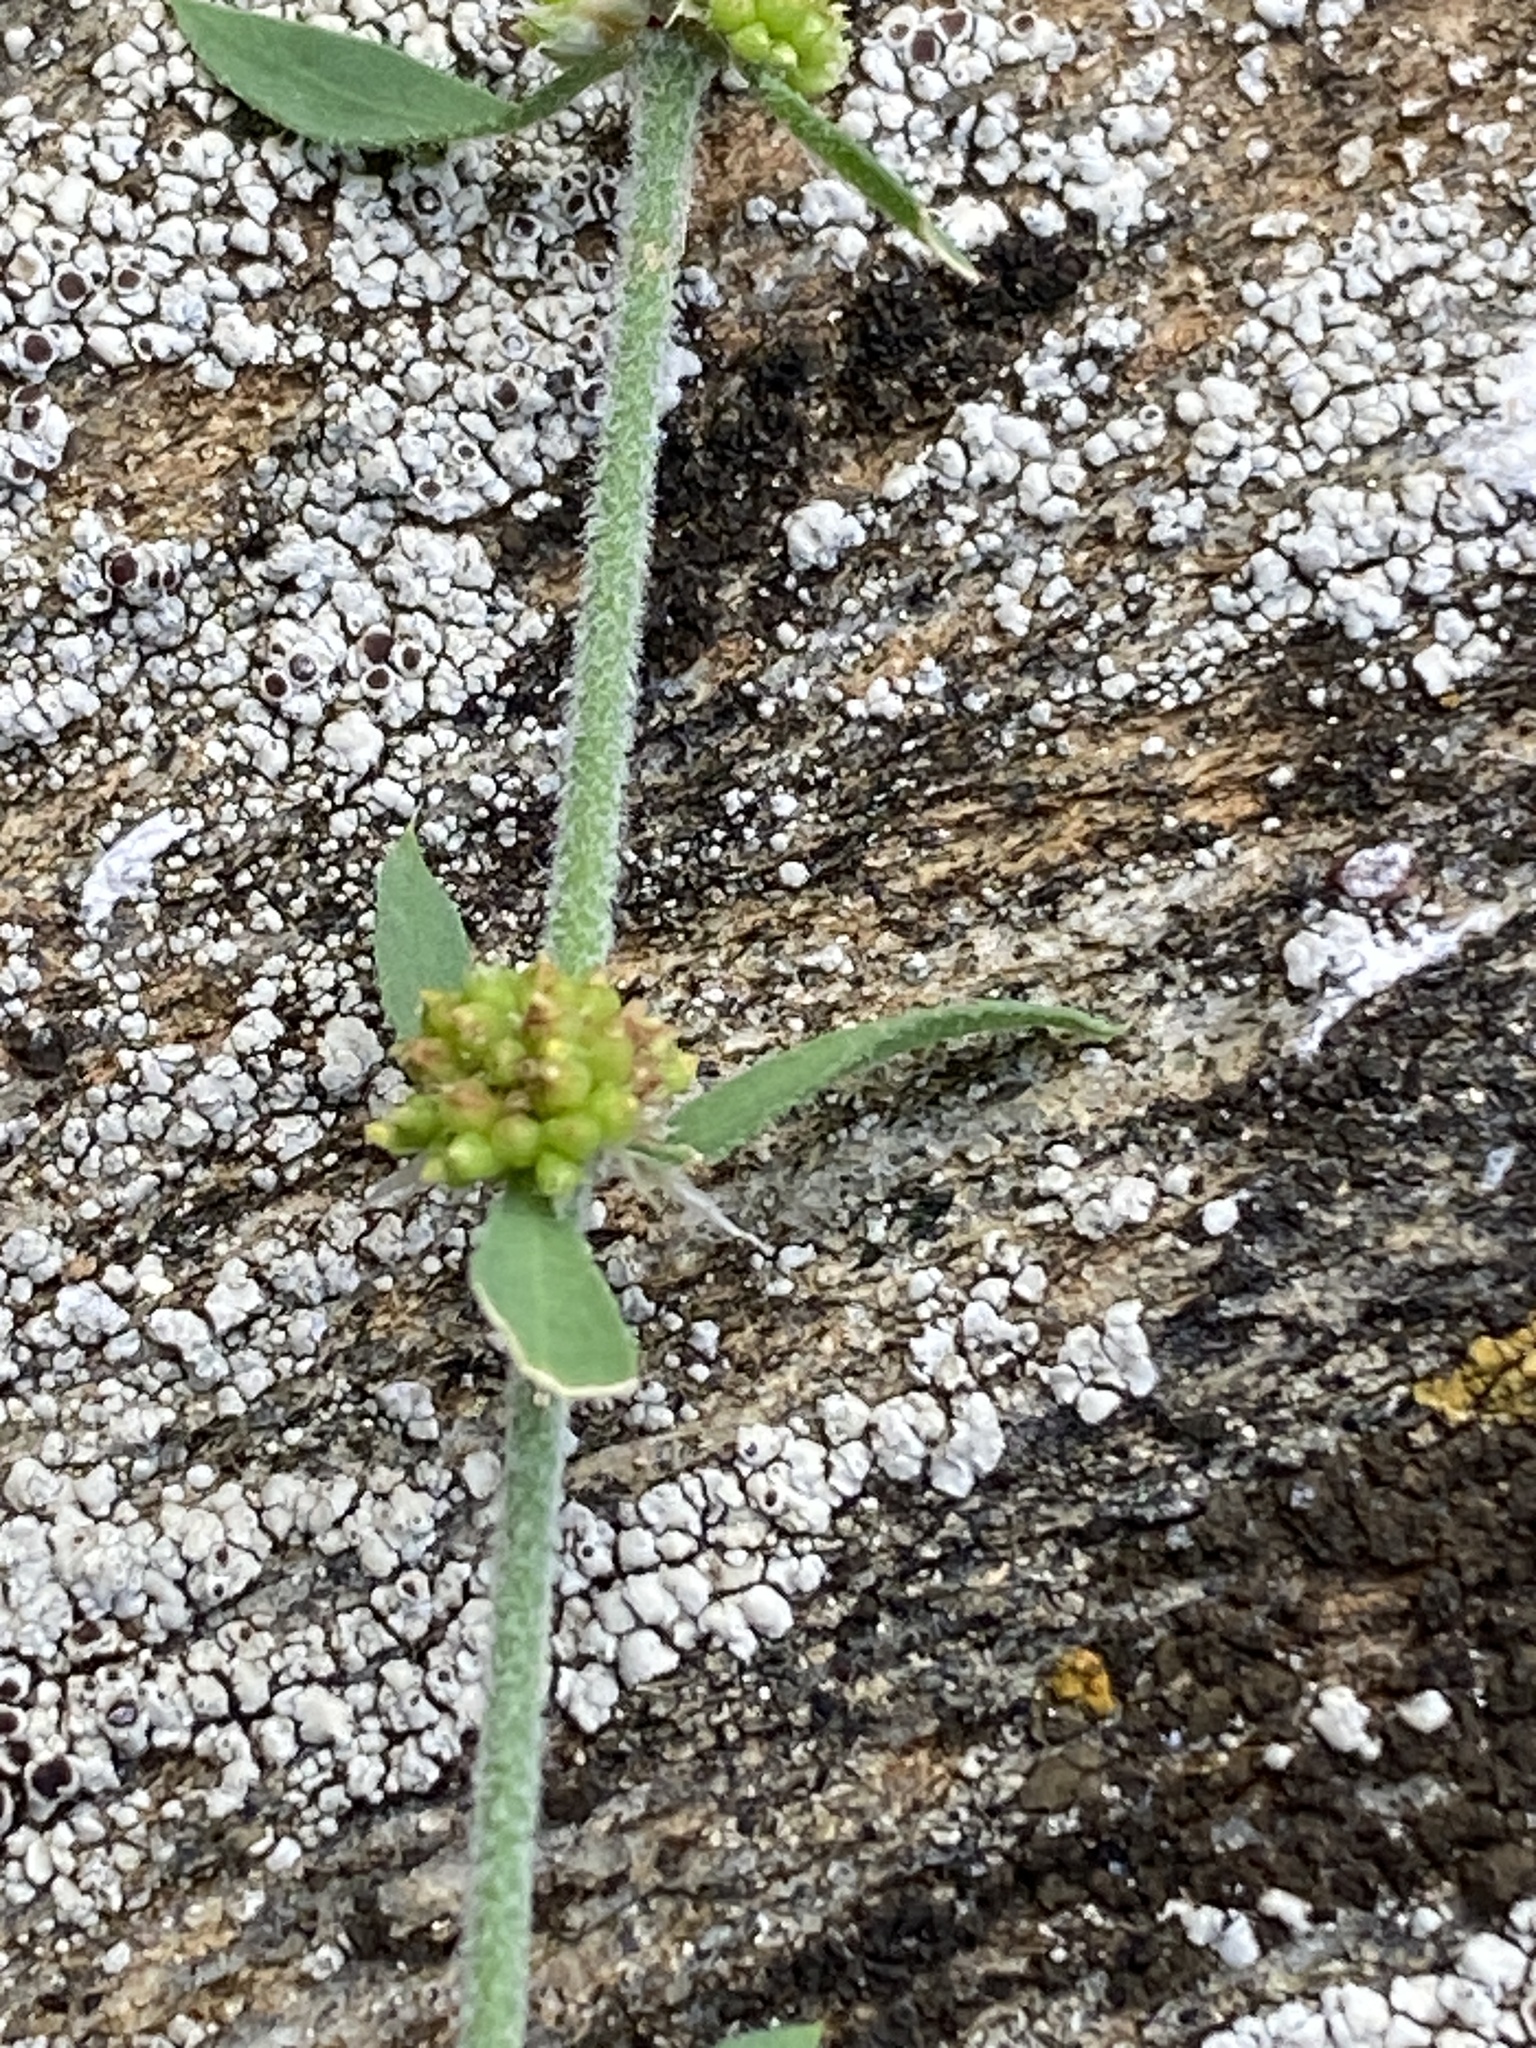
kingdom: Plantae
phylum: Tracheophyta
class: Magnoliopsida
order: Caryophyllales
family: Caryophyllaceae
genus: Pollichia
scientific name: Pollichia campestris
